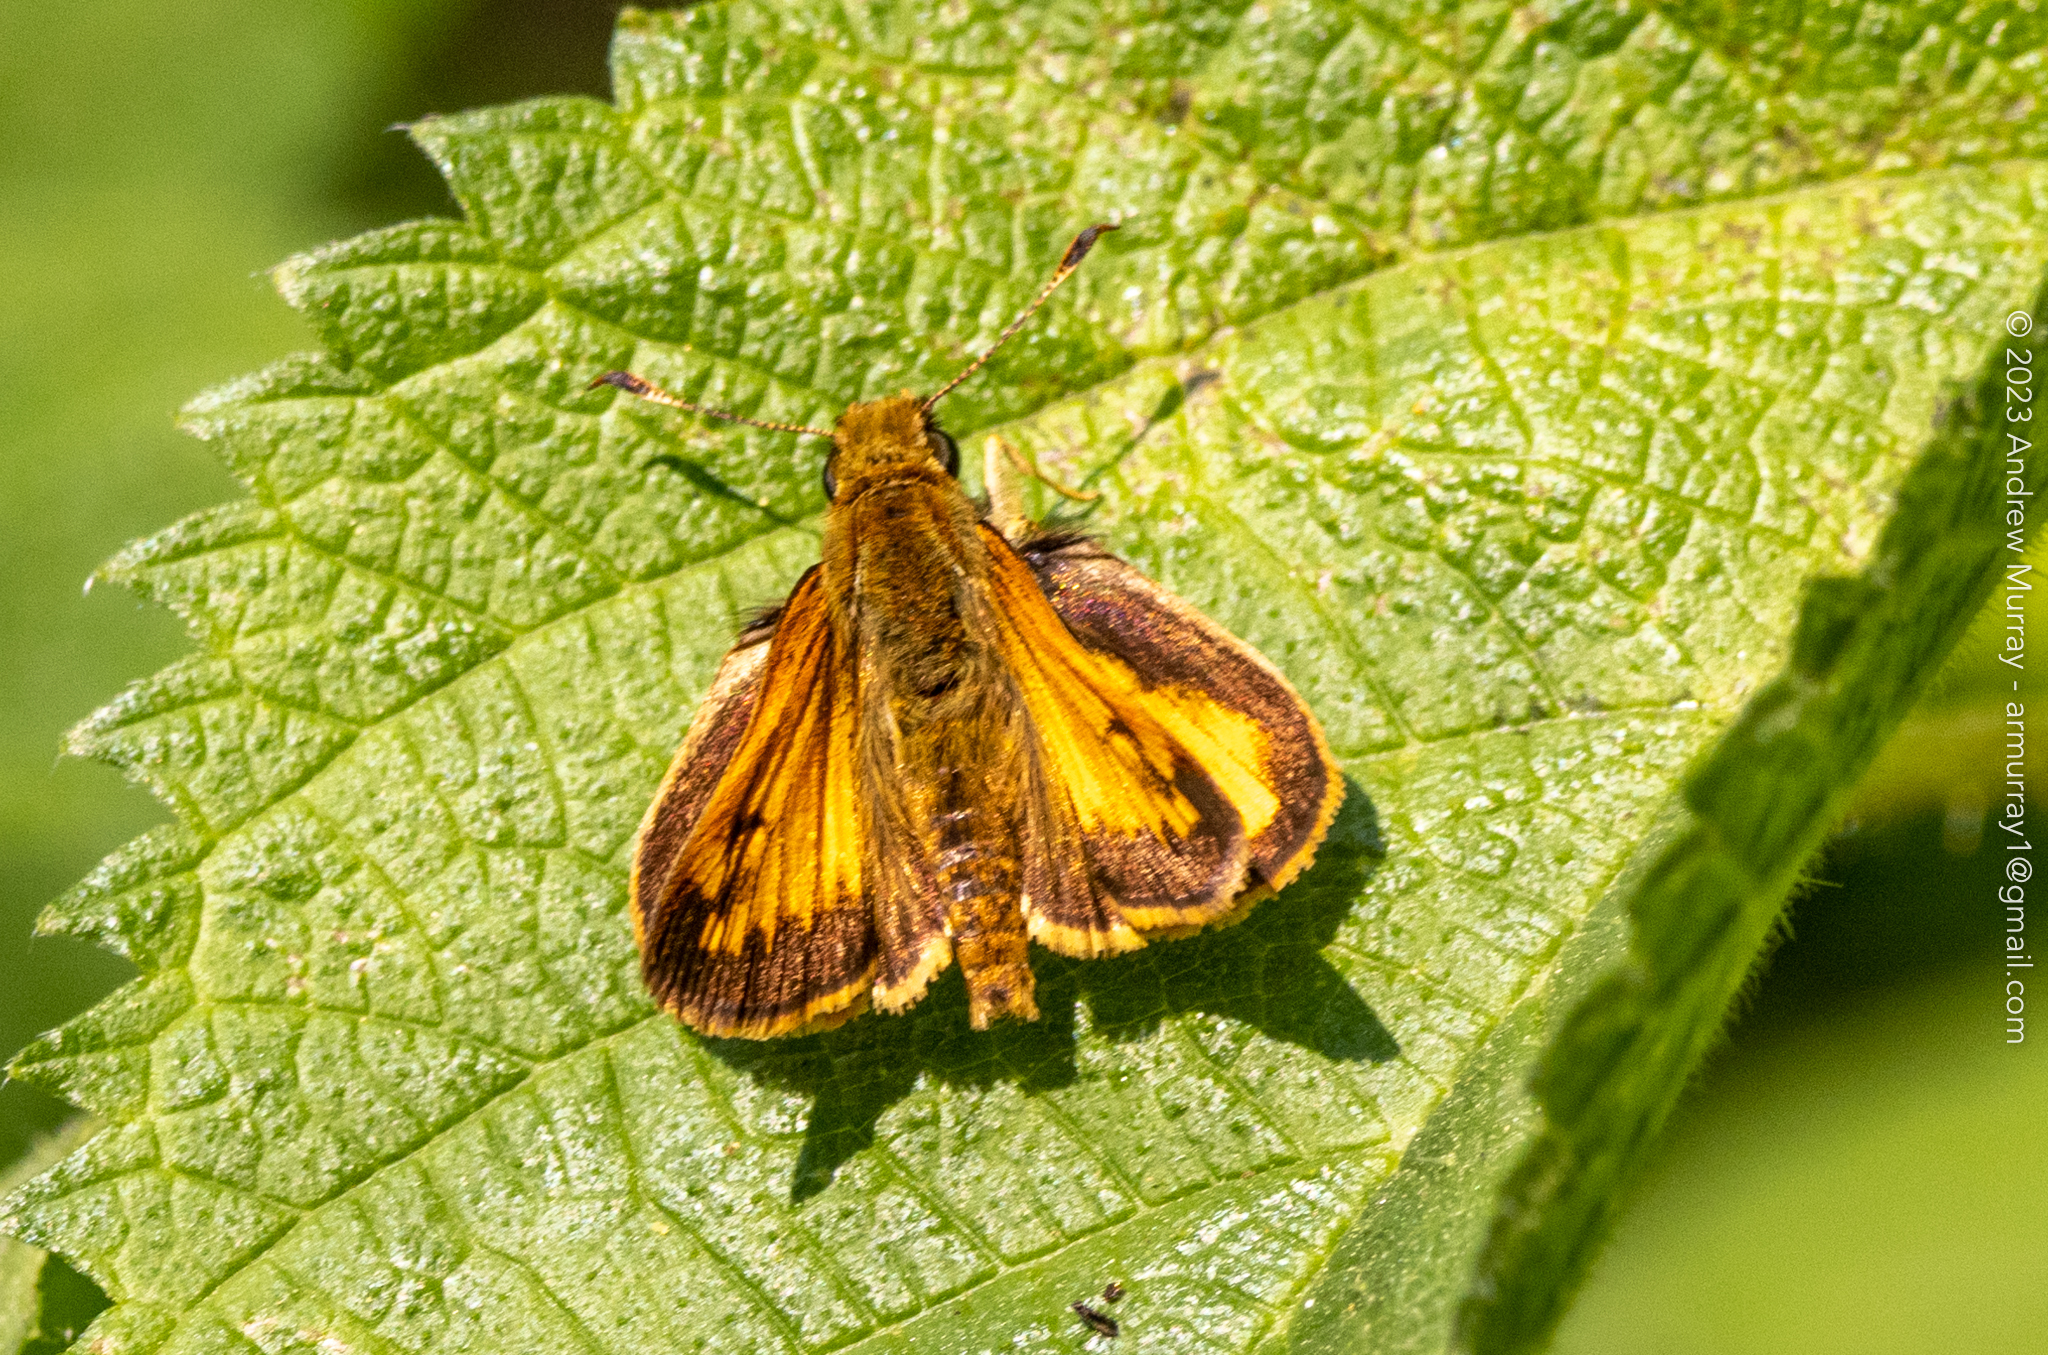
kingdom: Animalia
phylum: Arthropoda
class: Insecta
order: Lepidoptera
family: Hesperiidae
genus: Lon
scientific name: Lon hobomok
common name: Hobomok skipper
